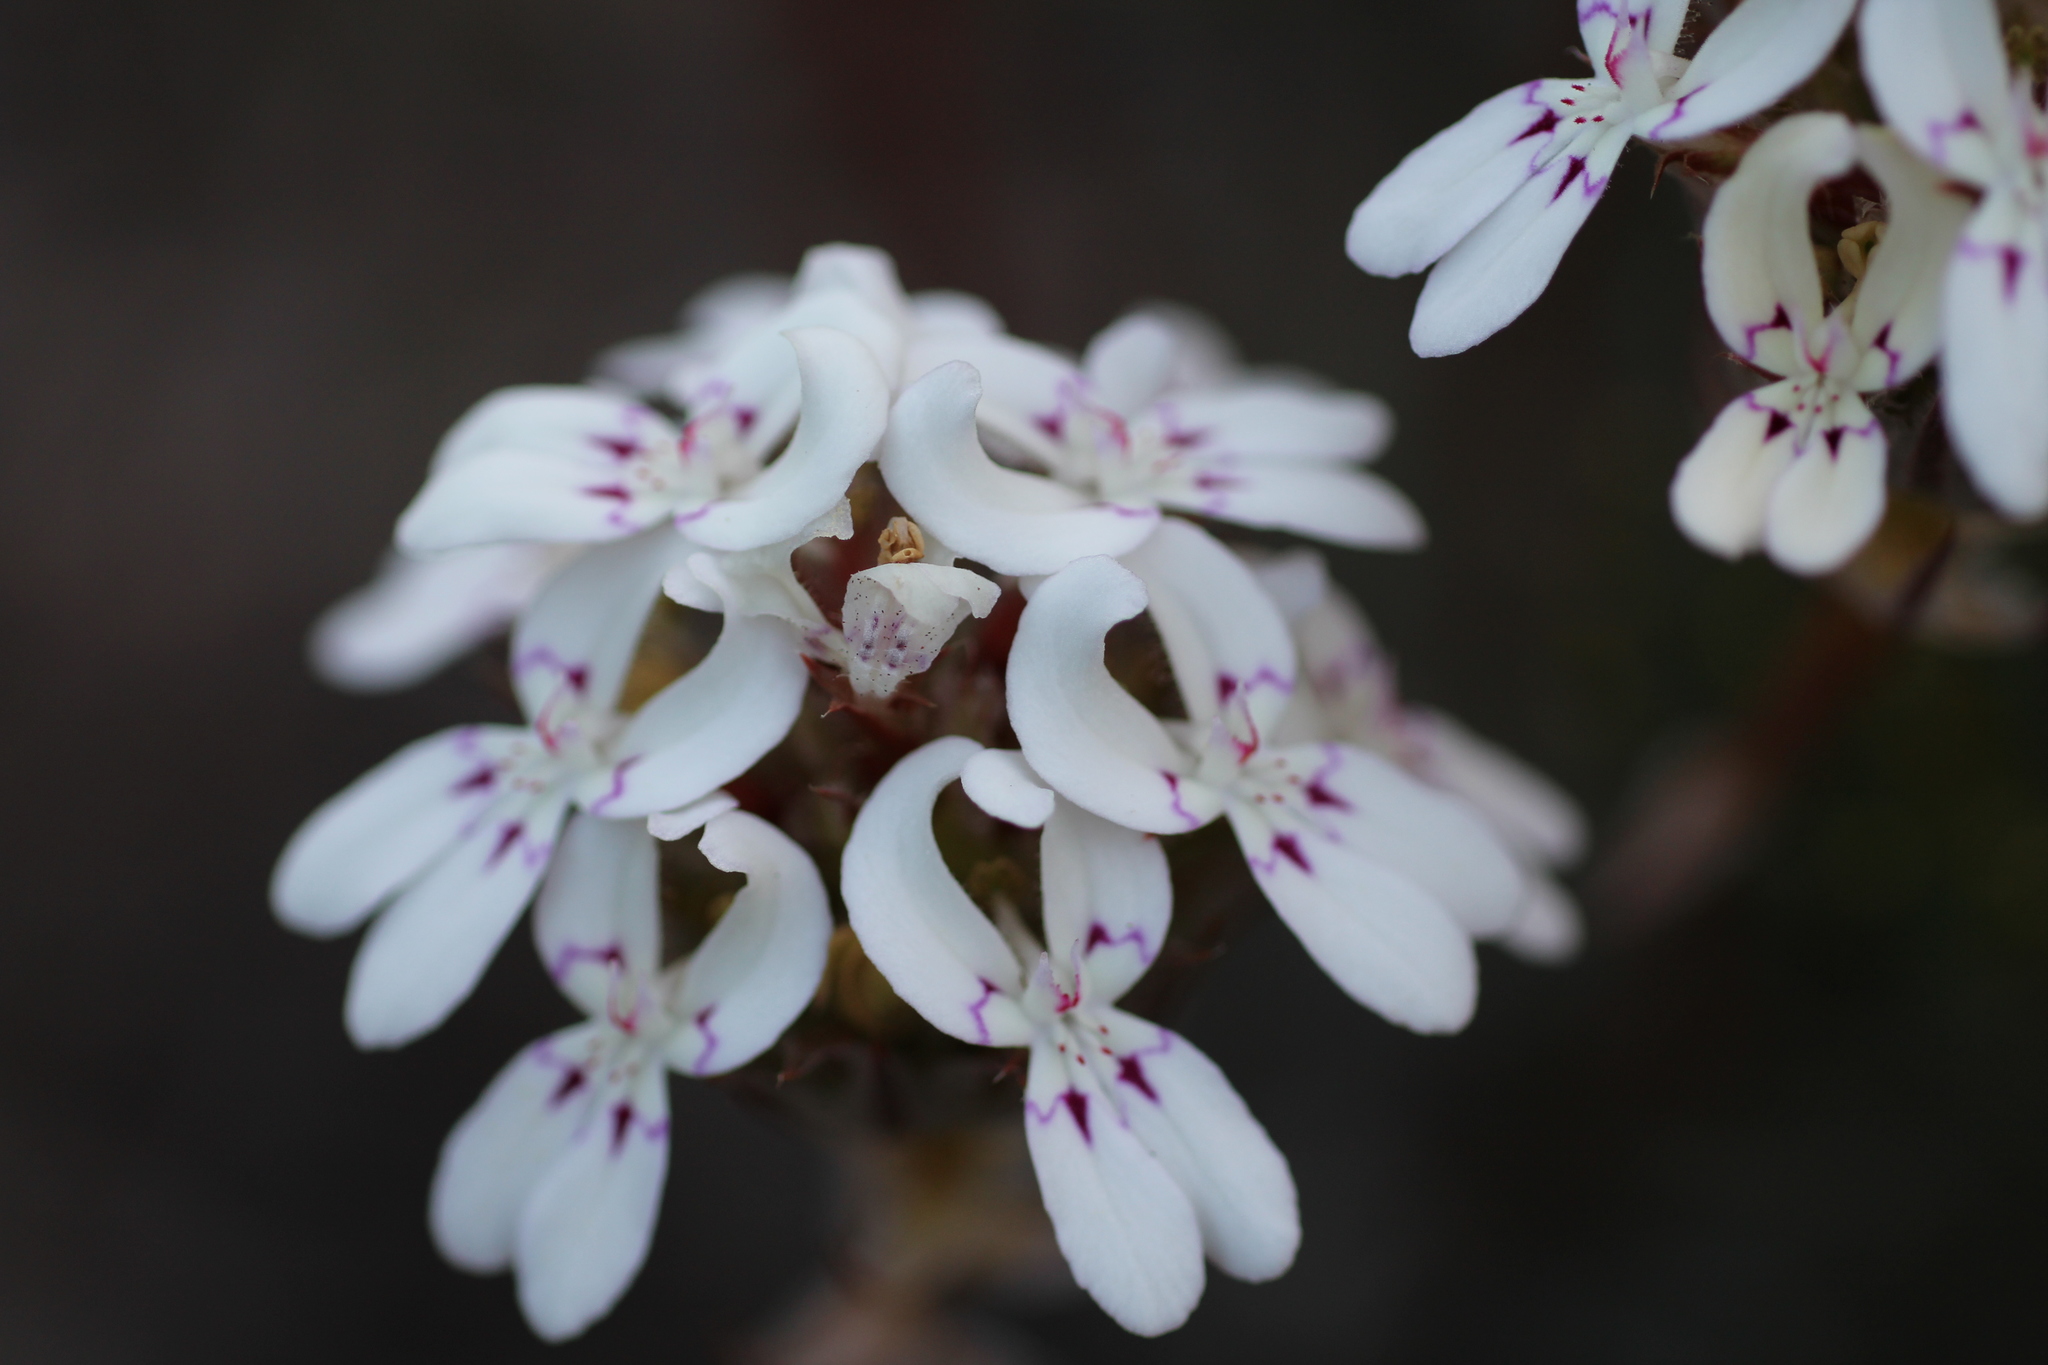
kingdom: Plantae
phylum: Tracheophyta
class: Magnoliopsida
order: Asterales
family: Stylidiaceae
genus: Stylidium
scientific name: Stylidium crossocephalum
